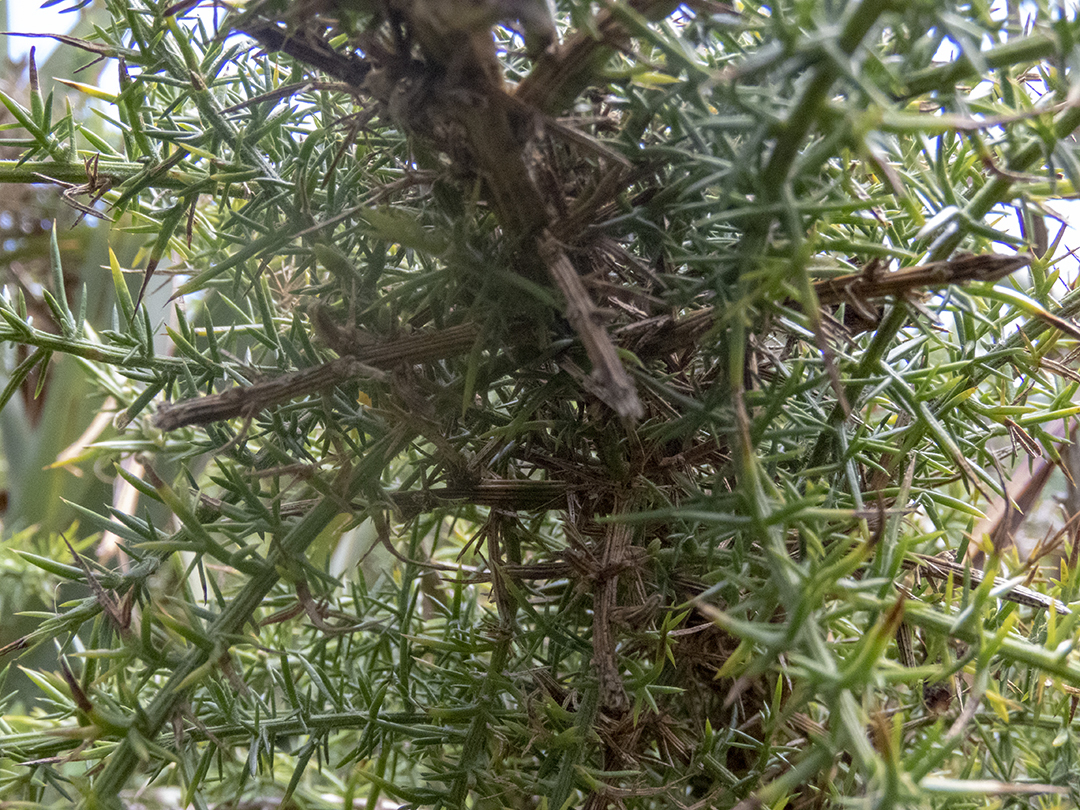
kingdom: Plantae
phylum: Tracheophyta
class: Magnoliopsida
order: Fabales
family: Fabaceae
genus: Ulex
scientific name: Ulex europaeus
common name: Common gorse
